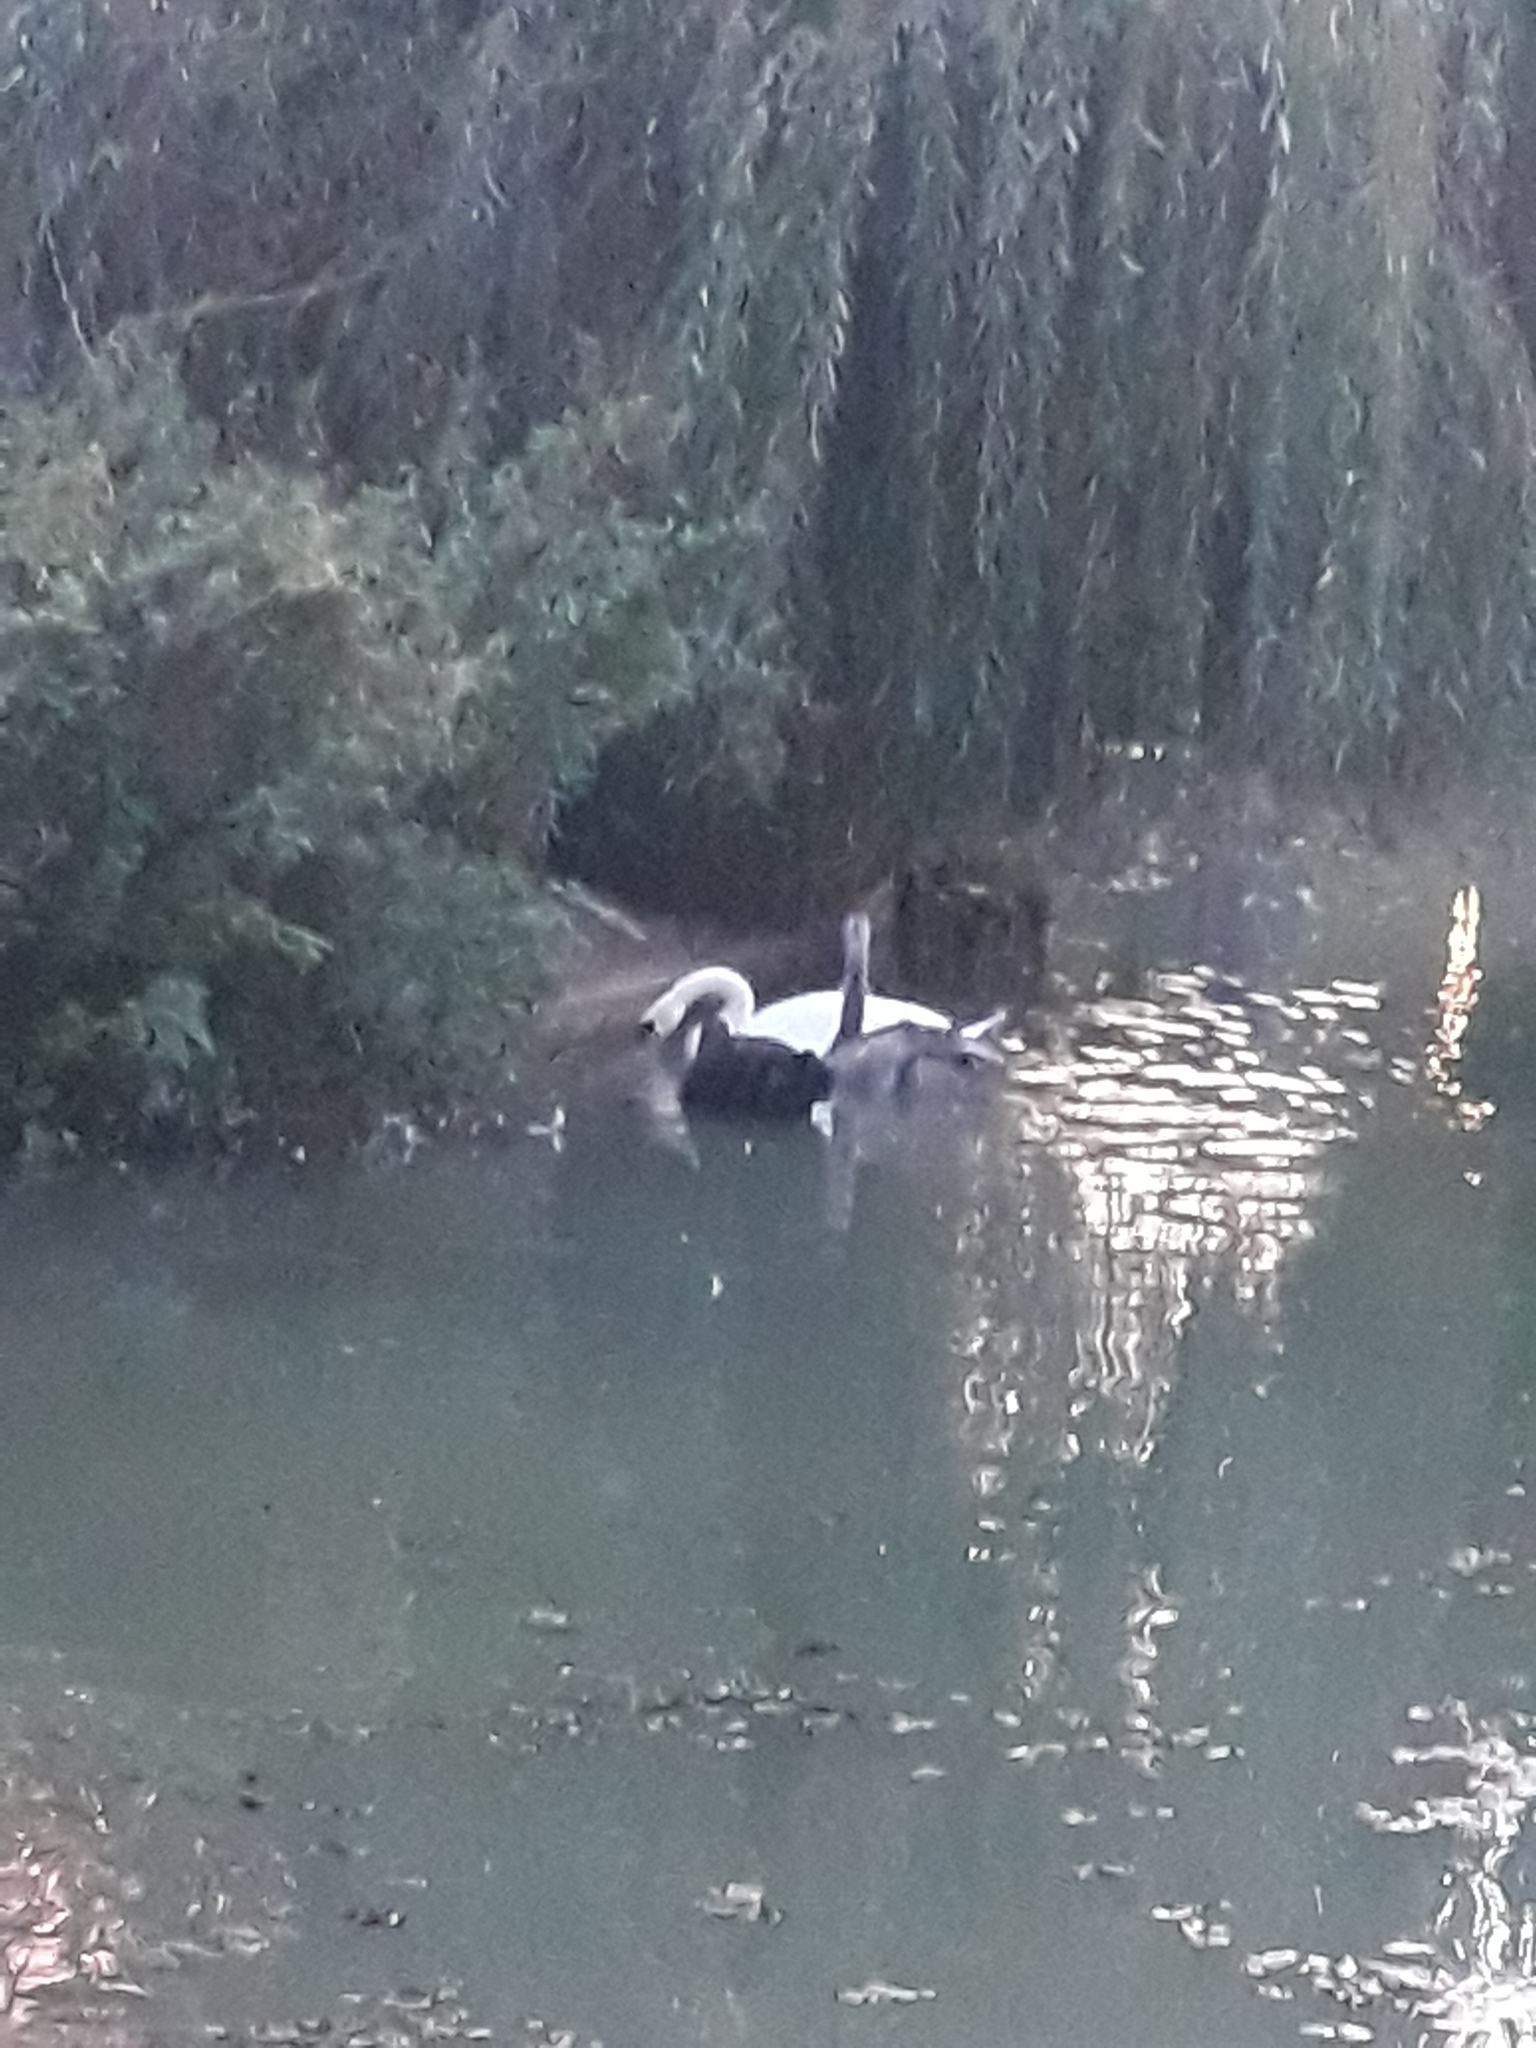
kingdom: Animalia
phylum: Chordata
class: Aves
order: Anseriformes
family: Anatidae
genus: Cygnus
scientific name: Cygnus olor
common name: Mute swan
